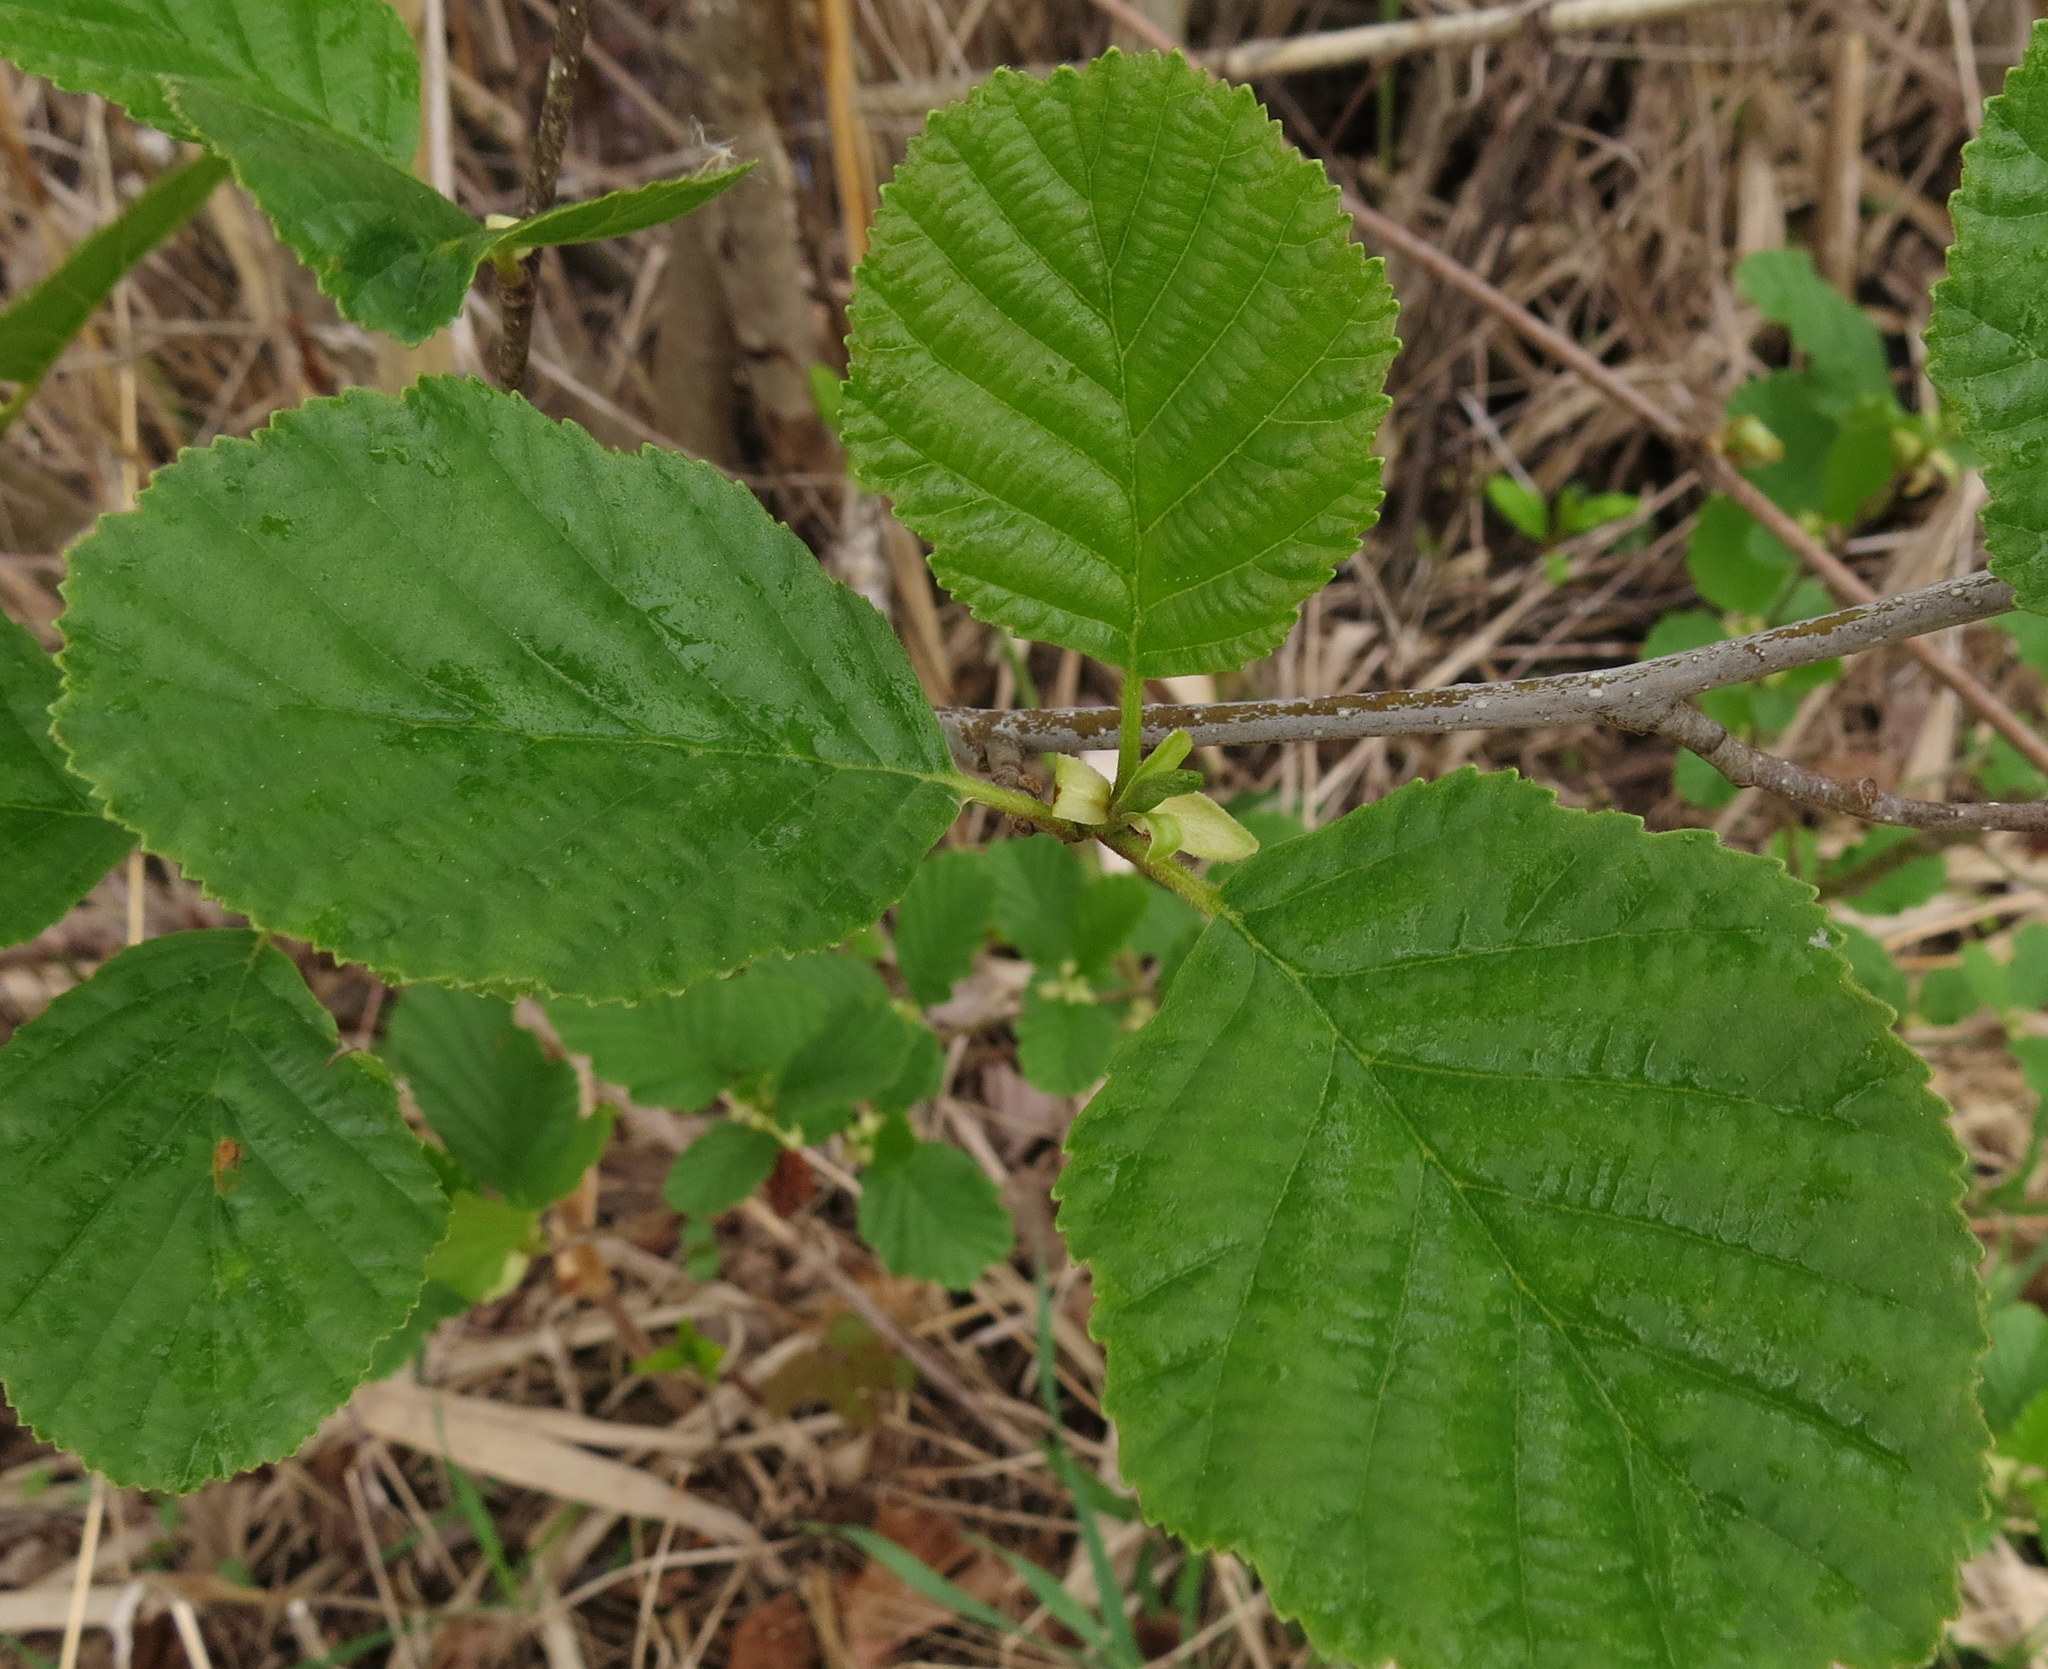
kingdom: Plantae
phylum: Tracheophyta
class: Magnoliopsida
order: Fagales
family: Betulaceae
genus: Alnus
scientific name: Alnus glutinosa
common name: Black alder
